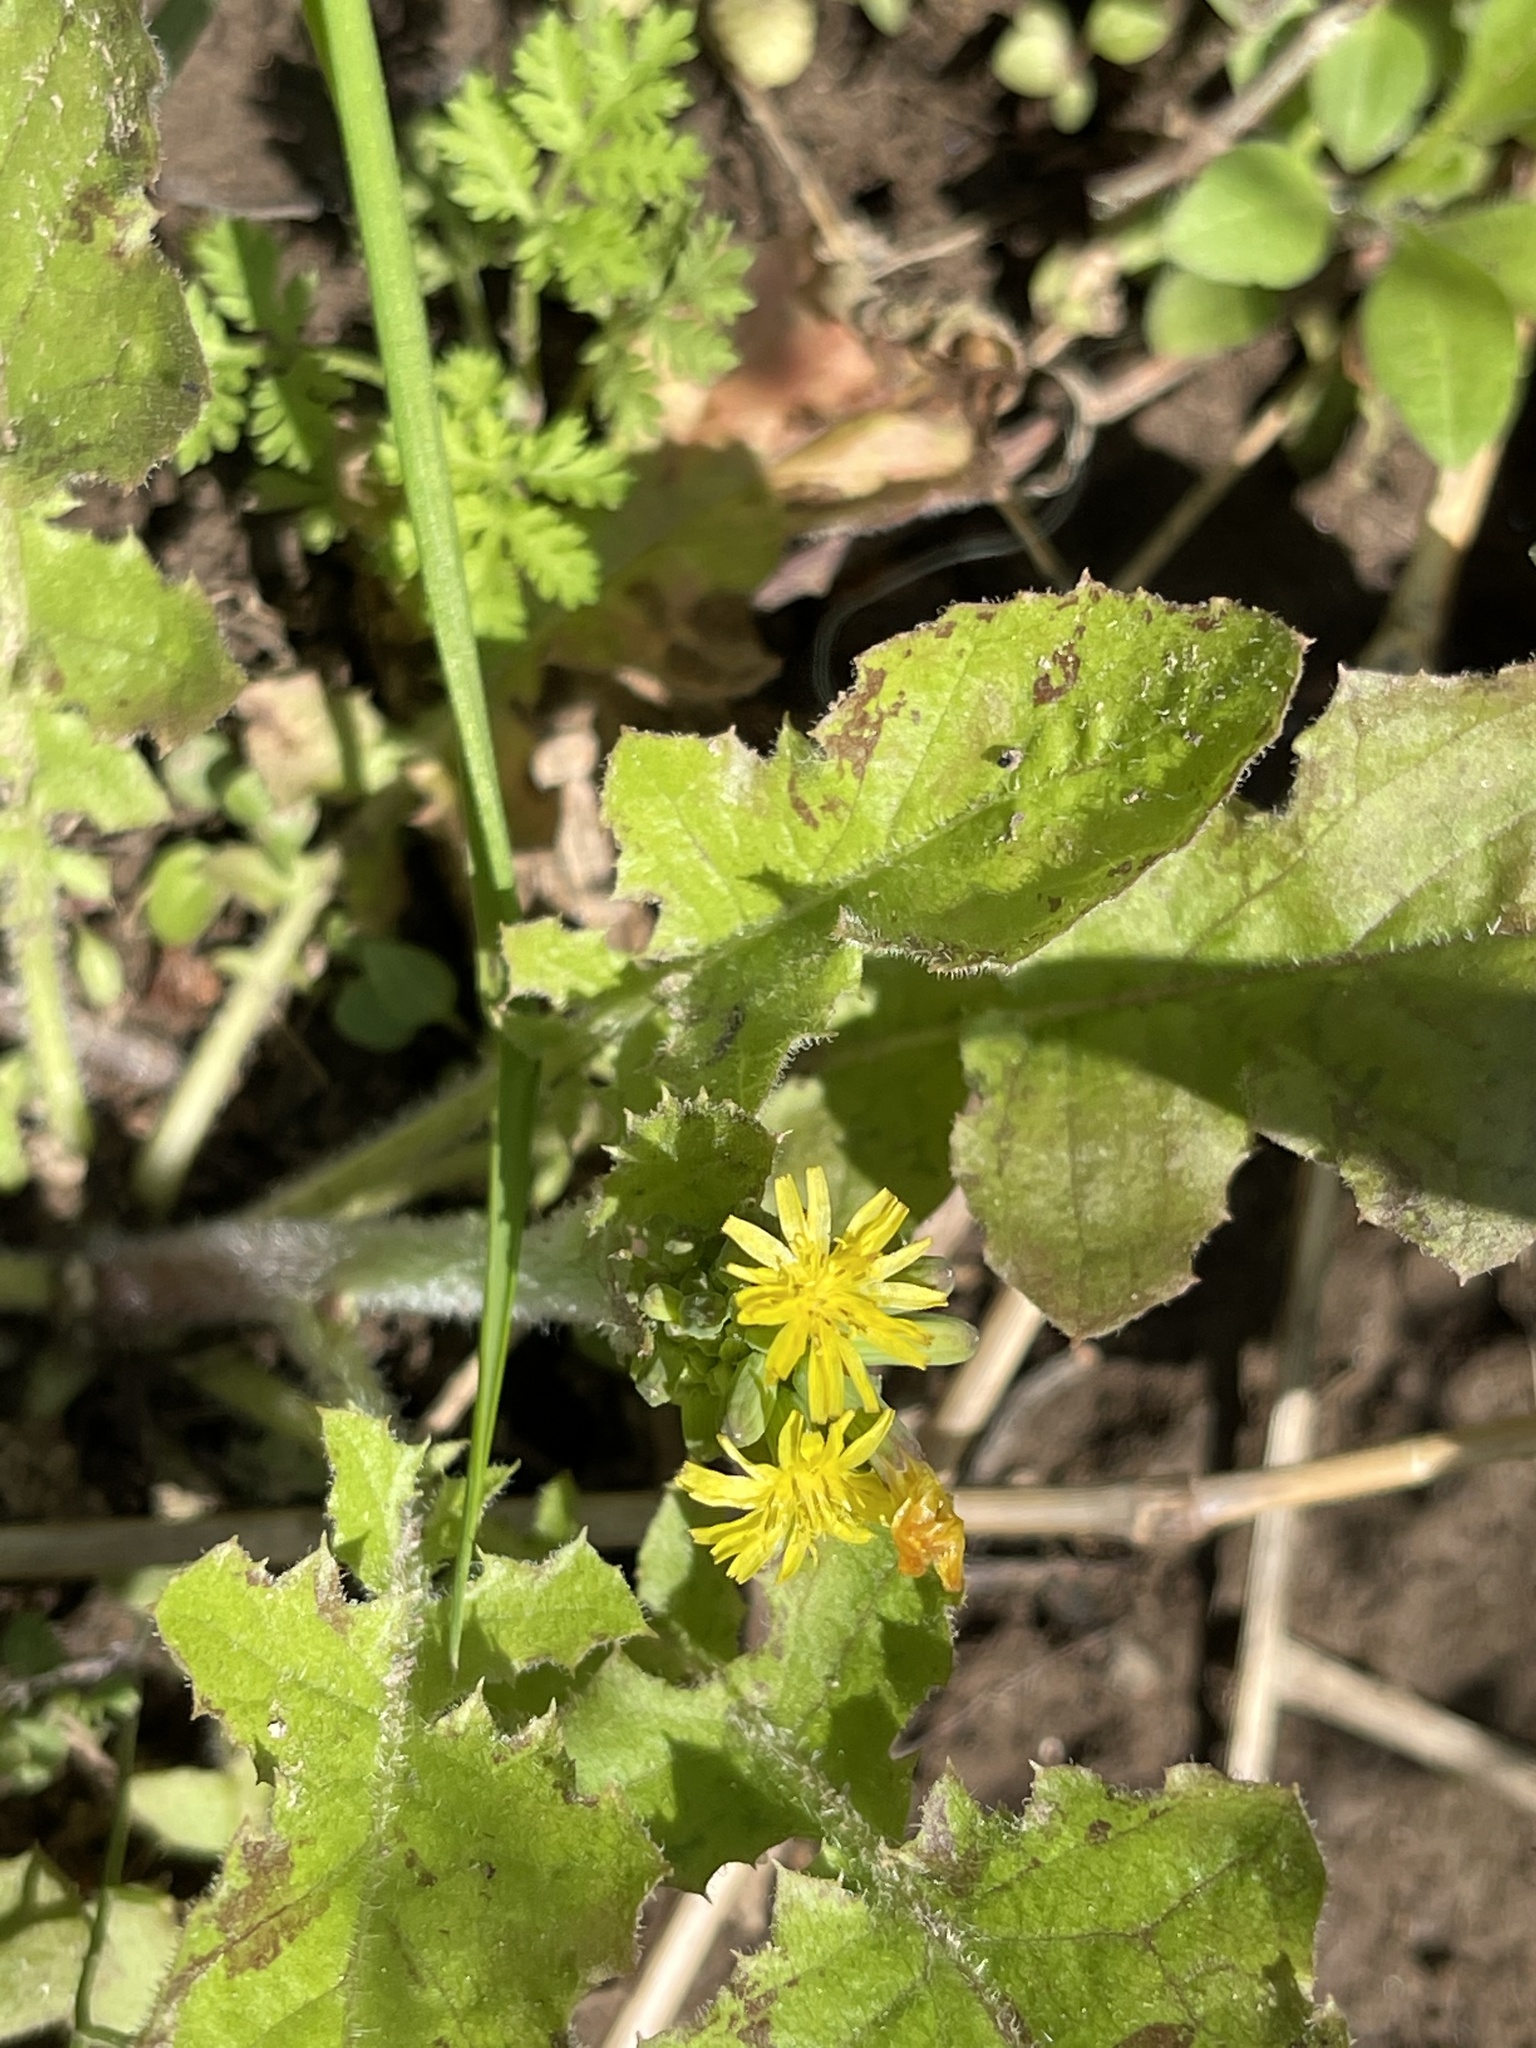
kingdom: Plantae
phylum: Tracheophyta
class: Magnoliopsida
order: Asterales
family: Asteraceae
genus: Youngia
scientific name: Youngia japonica
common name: Oriental false hawksbeard
